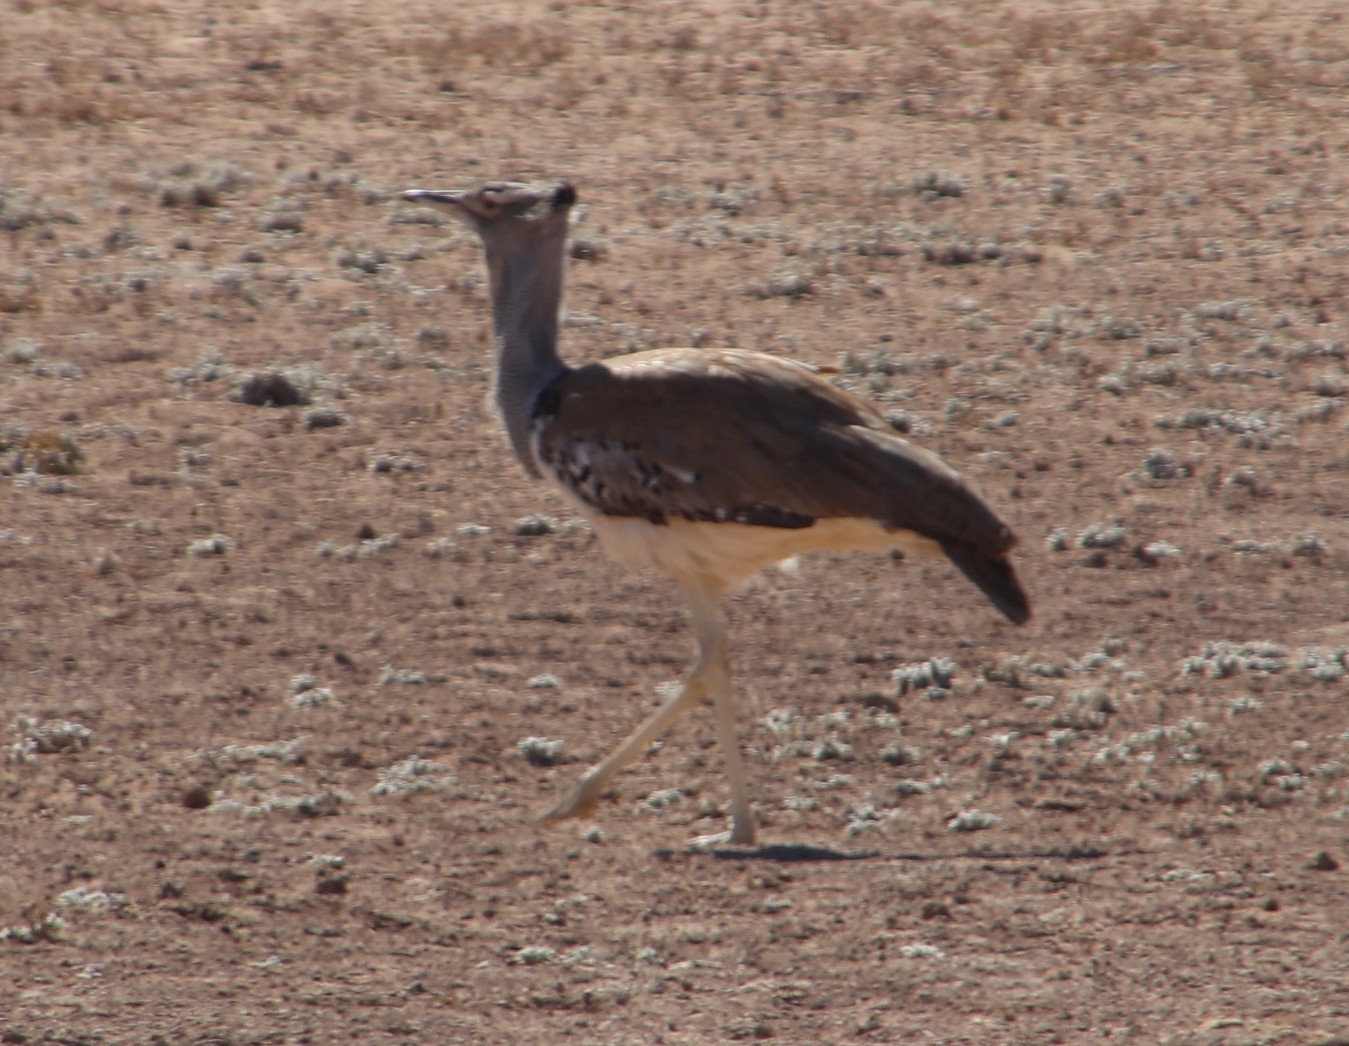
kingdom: Animalia
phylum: Chordata
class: Aves
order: Otidiformes
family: Otididae
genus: Ardeotis
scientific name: Ardeotis kori
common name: Kori bustard
